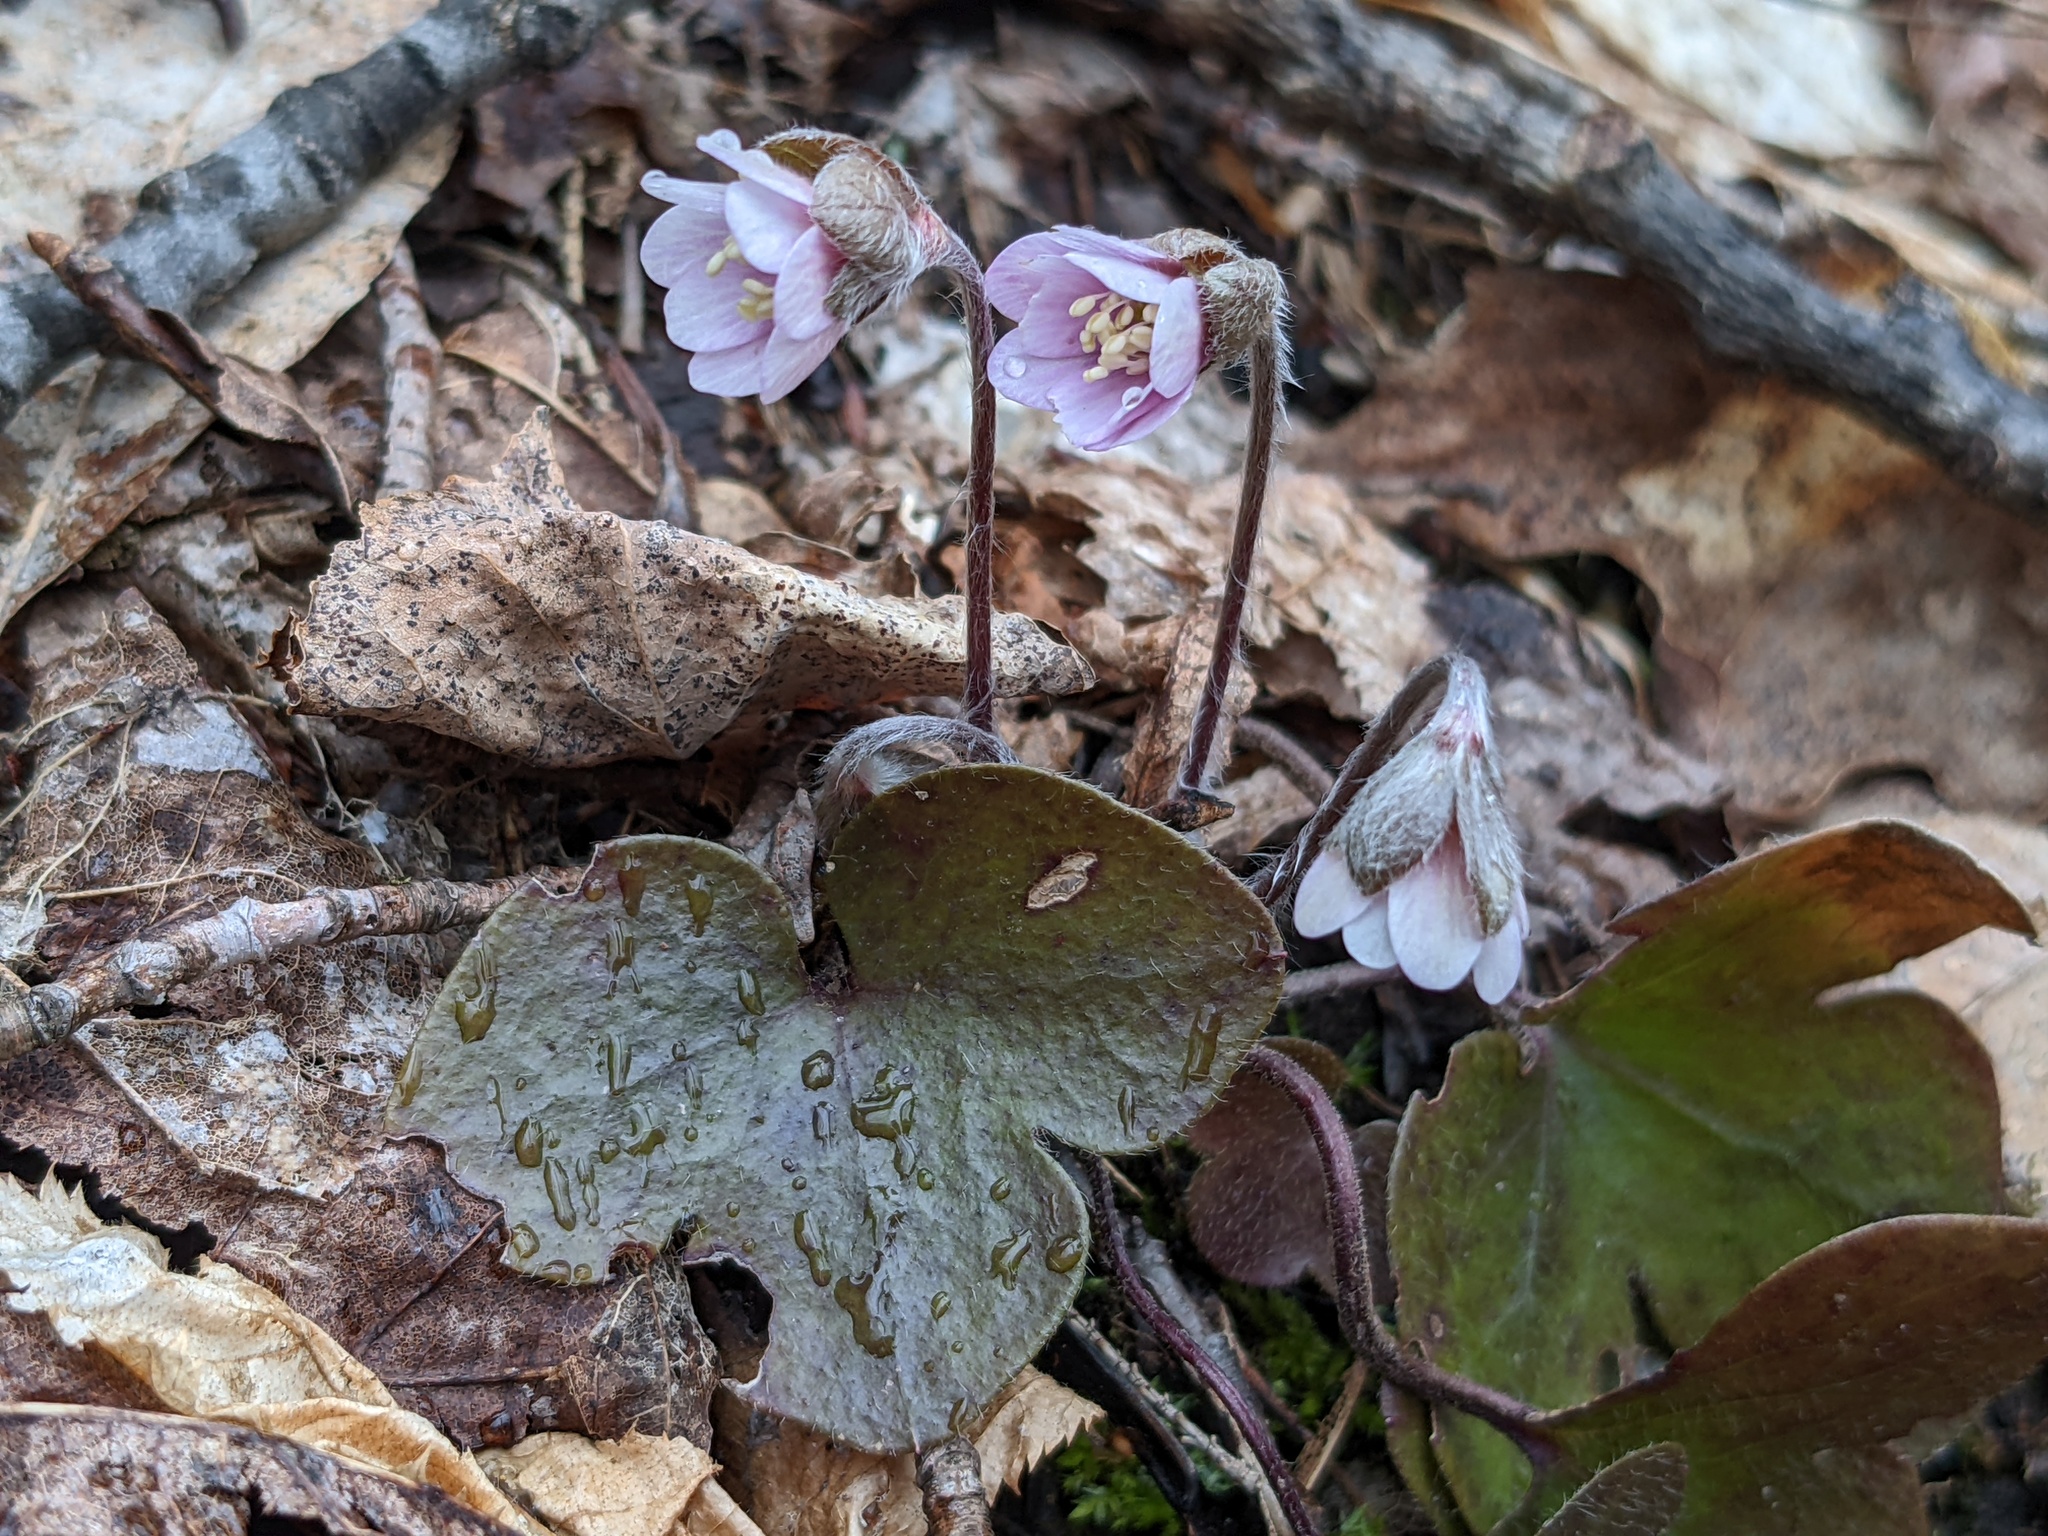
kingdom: Plantae
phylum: Tracheophyta
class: Magnoliopsida
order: Ranunculales
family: Ranunculaceae
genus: Hepatica
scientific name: Hepatica americana
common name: American hepatica
